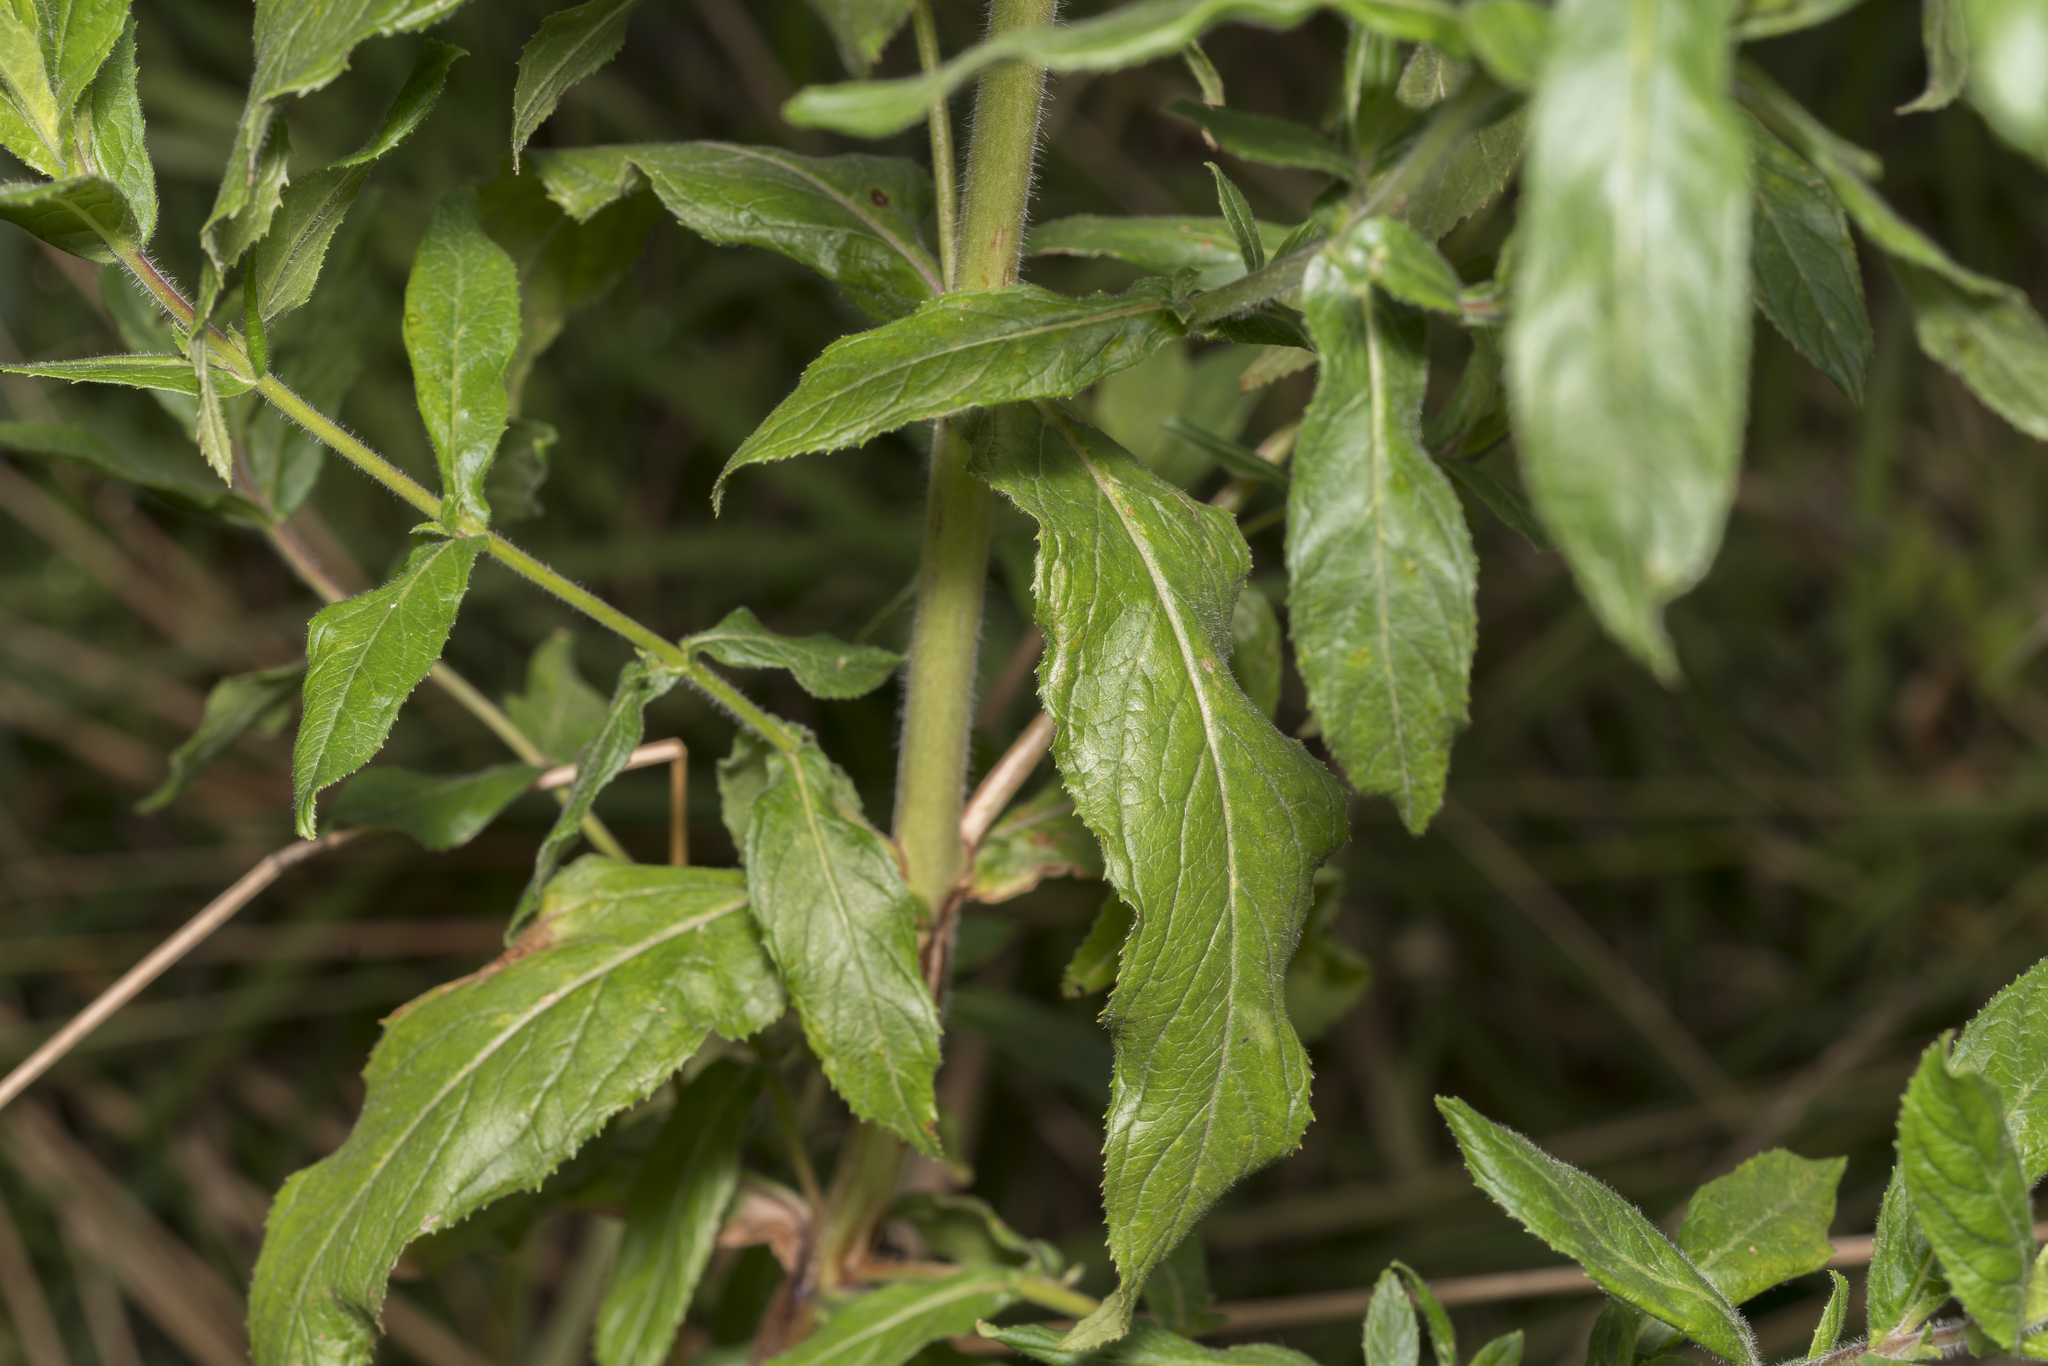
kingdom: Plantae
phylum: Tracheophyta
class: Magnoliopsida
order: Myrtales
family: Onagraceae
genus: Epilobium
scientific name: Epilobium hirsutum
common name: Great willowherb
